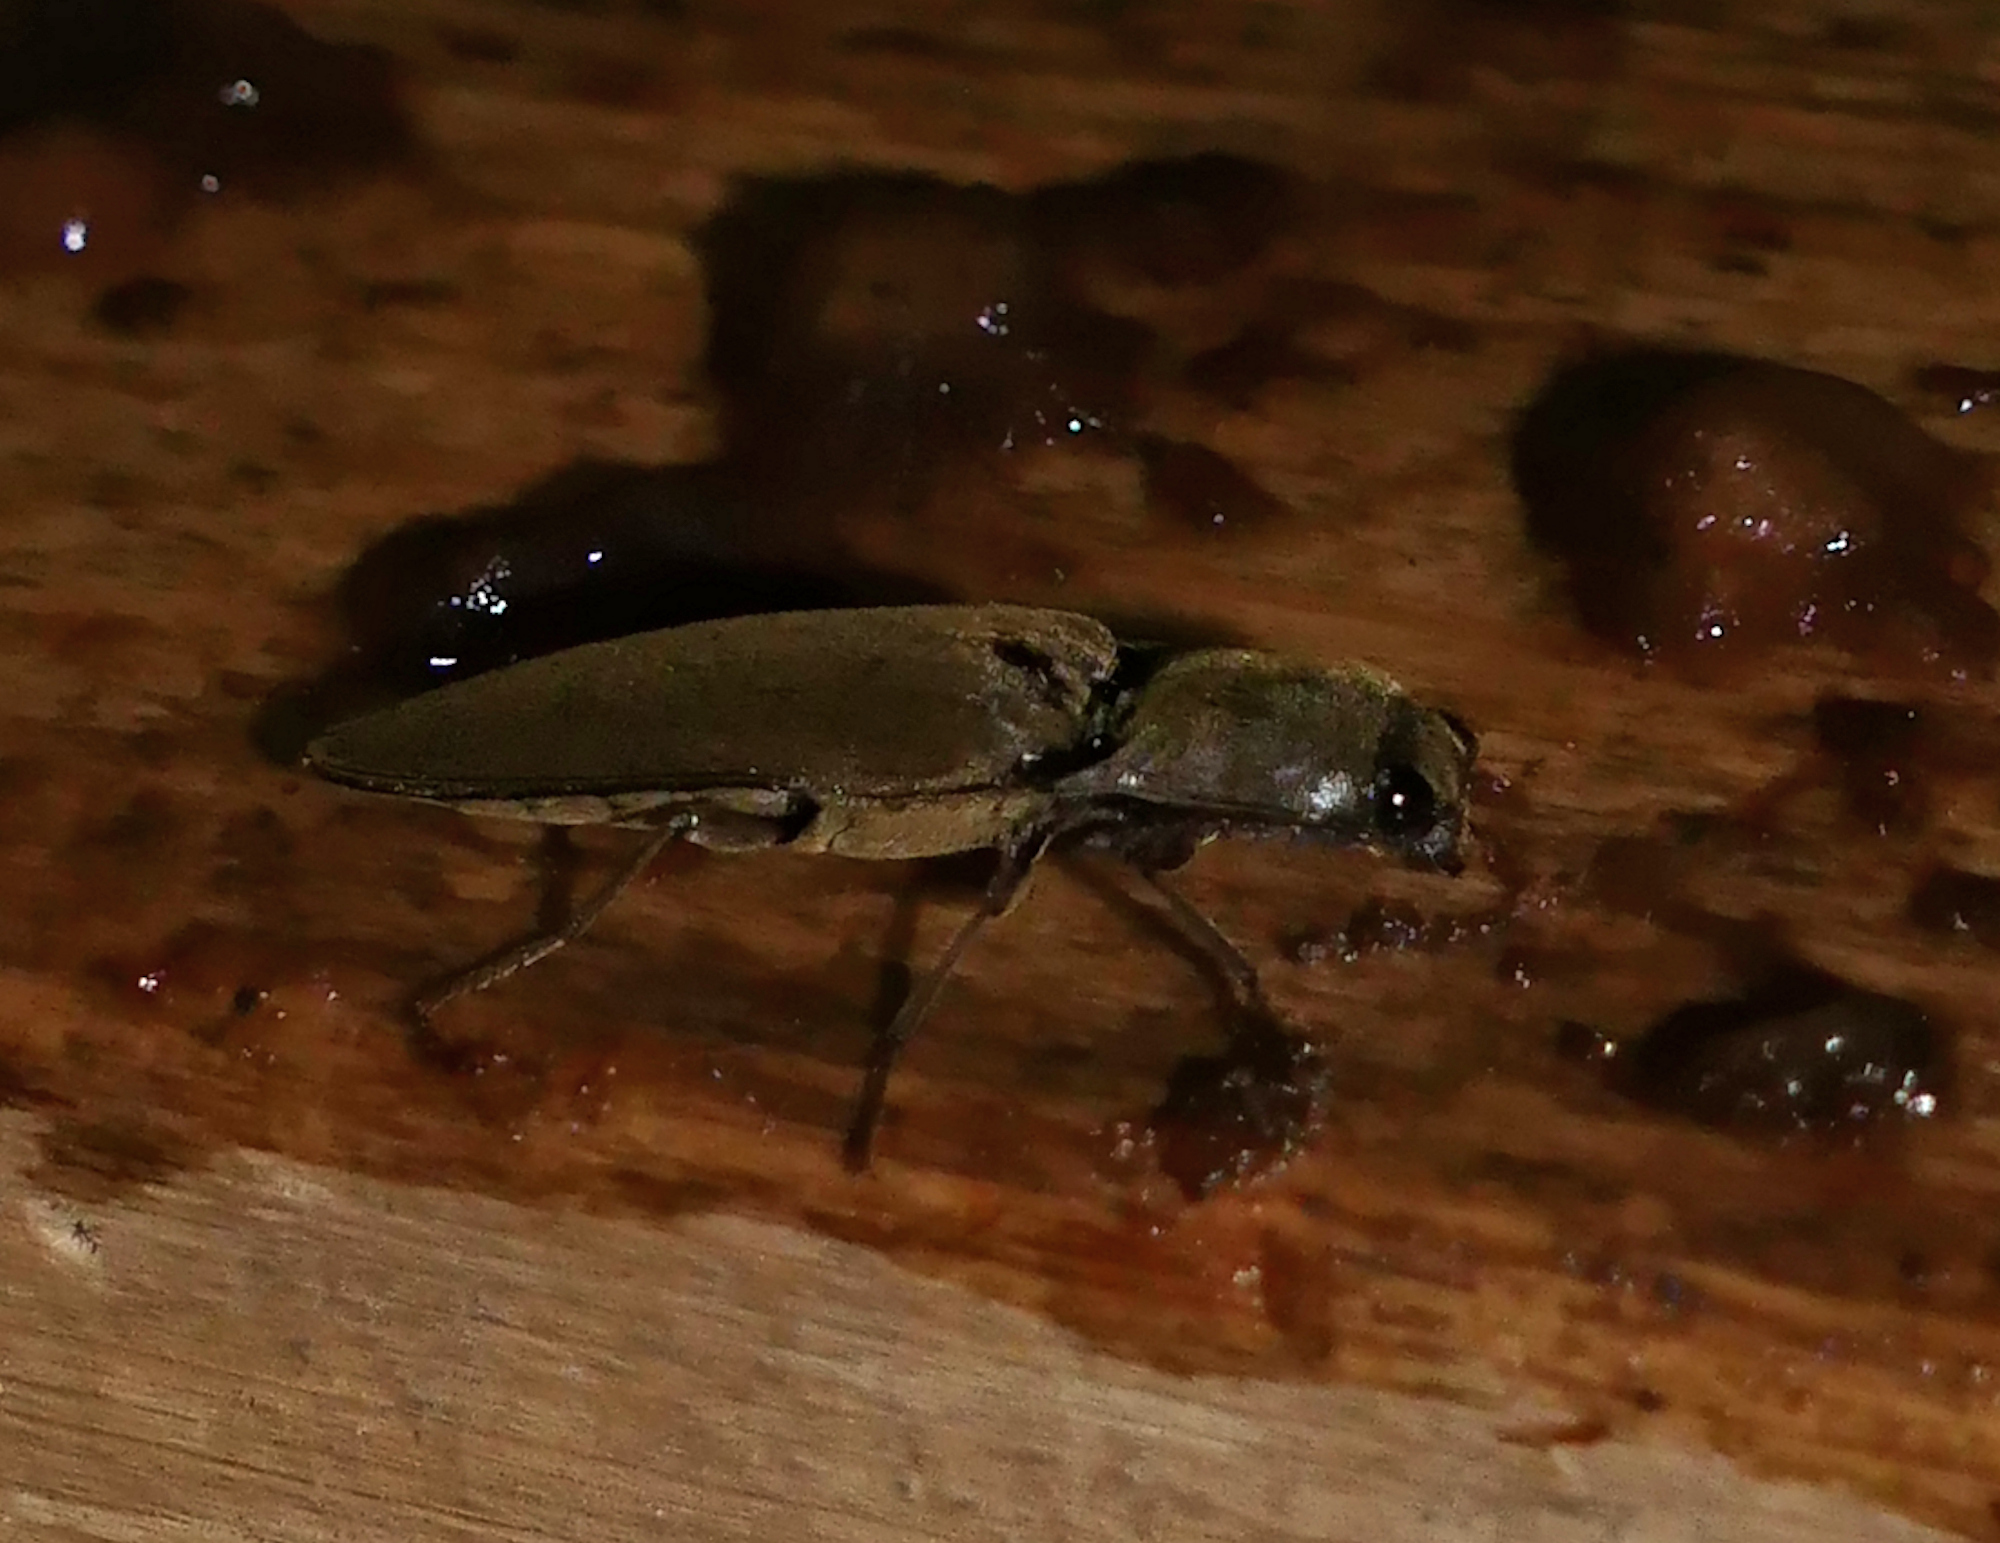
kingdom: Animalia
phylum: Arthropoda
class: Insecta
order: Coleoptera
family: Elateridae
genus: Orthostethus
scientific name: Orthostethus infuscatus
